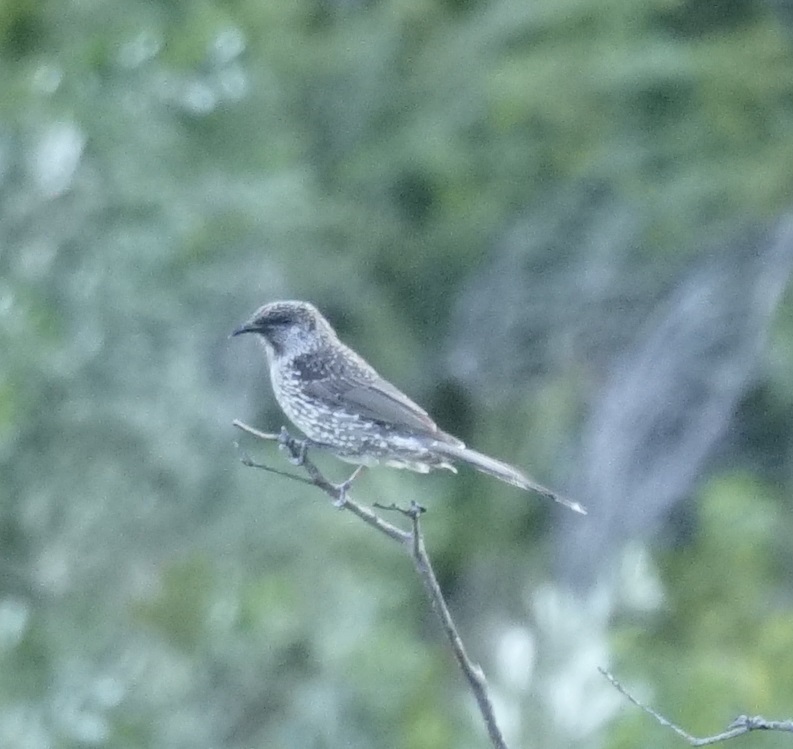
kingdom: Animalia
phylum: Chordata
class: Aves
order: Passeriformes
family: Meliphagidae
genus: Anthochaera
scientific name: Anthochaera chrysoptera
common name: Little wattlebird
